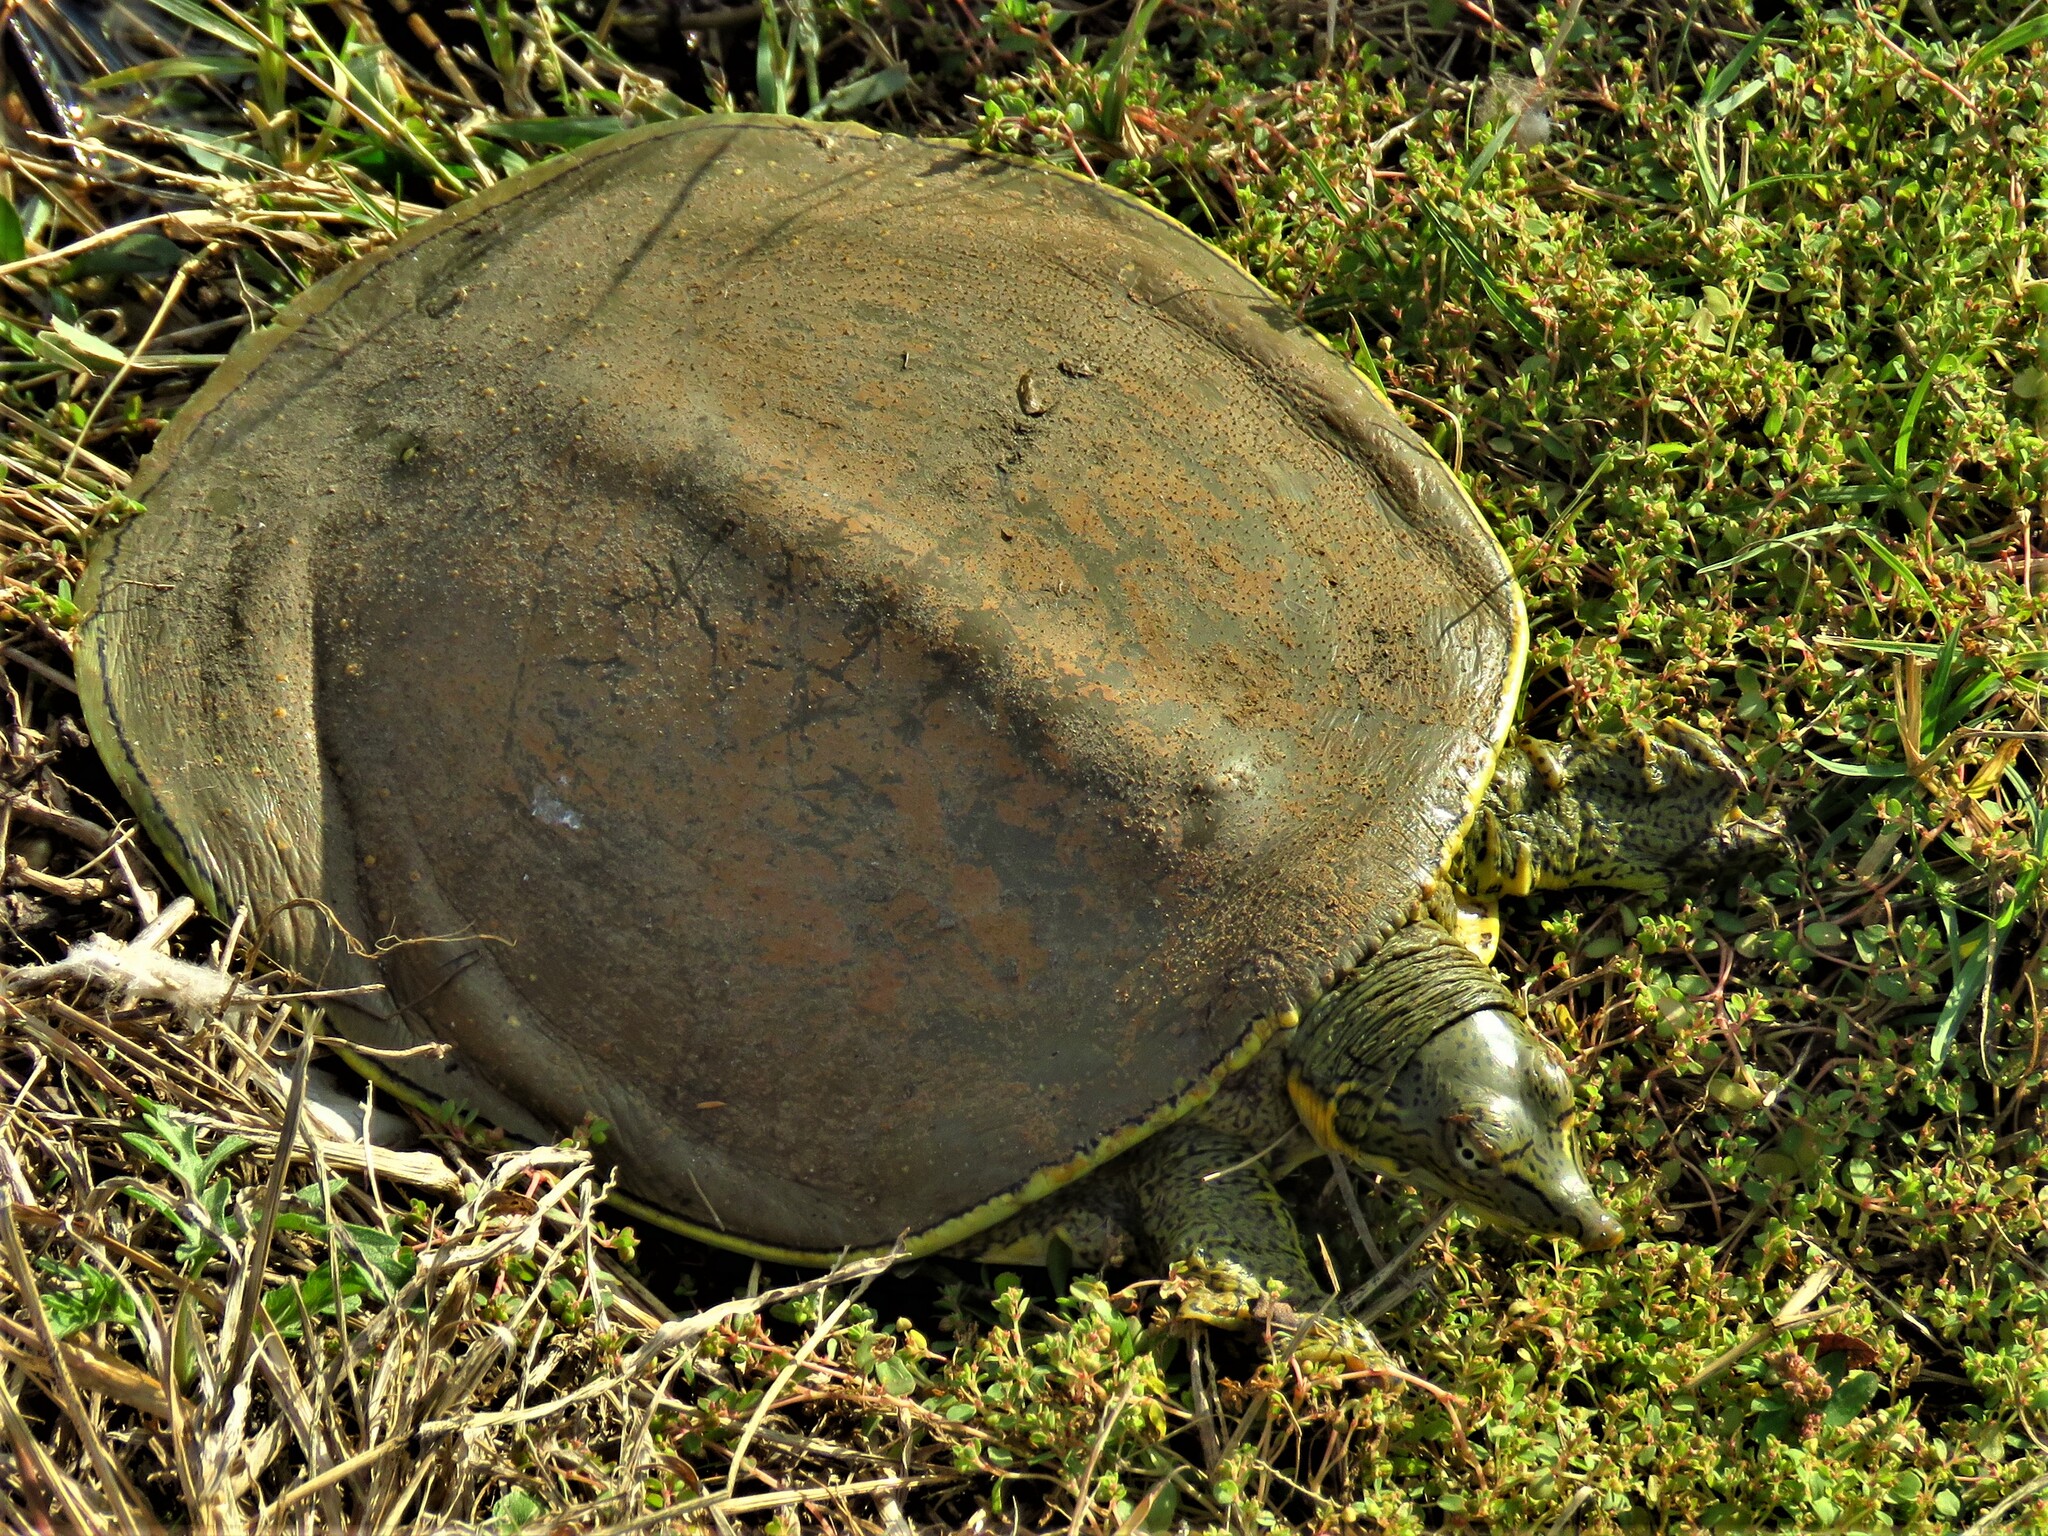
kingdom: Animalia
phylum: Chordata
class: Testudines
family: Trionychidae
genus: Apalone
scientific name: Apalone spinifera
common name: Spiny softshell turtle
